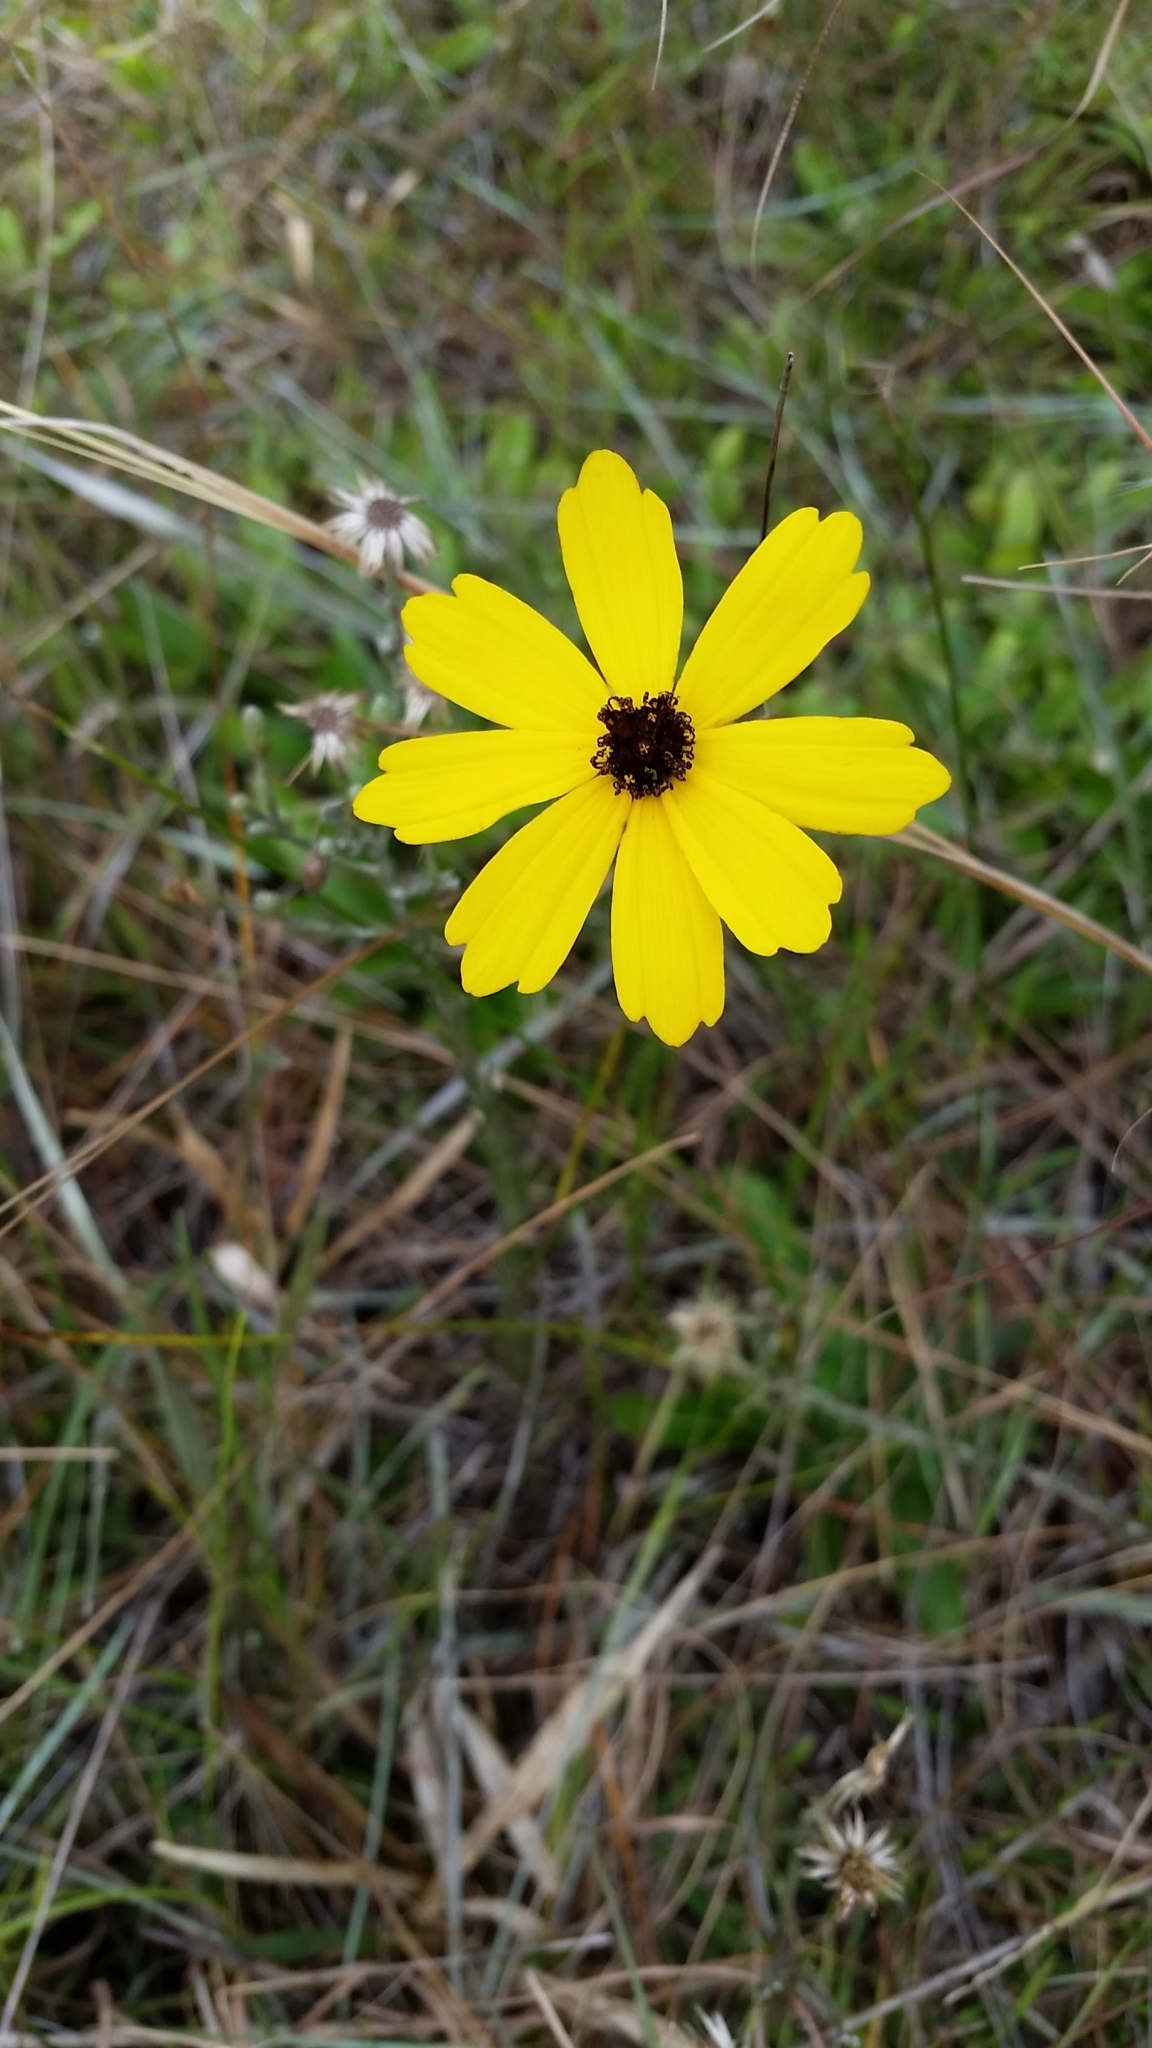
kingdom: Plantae
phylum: Tracheophyta
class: Magnoliopsida
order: Asterales
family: Asteraceae
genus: Coreopsis
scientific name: Coreopsis leavenworthii
